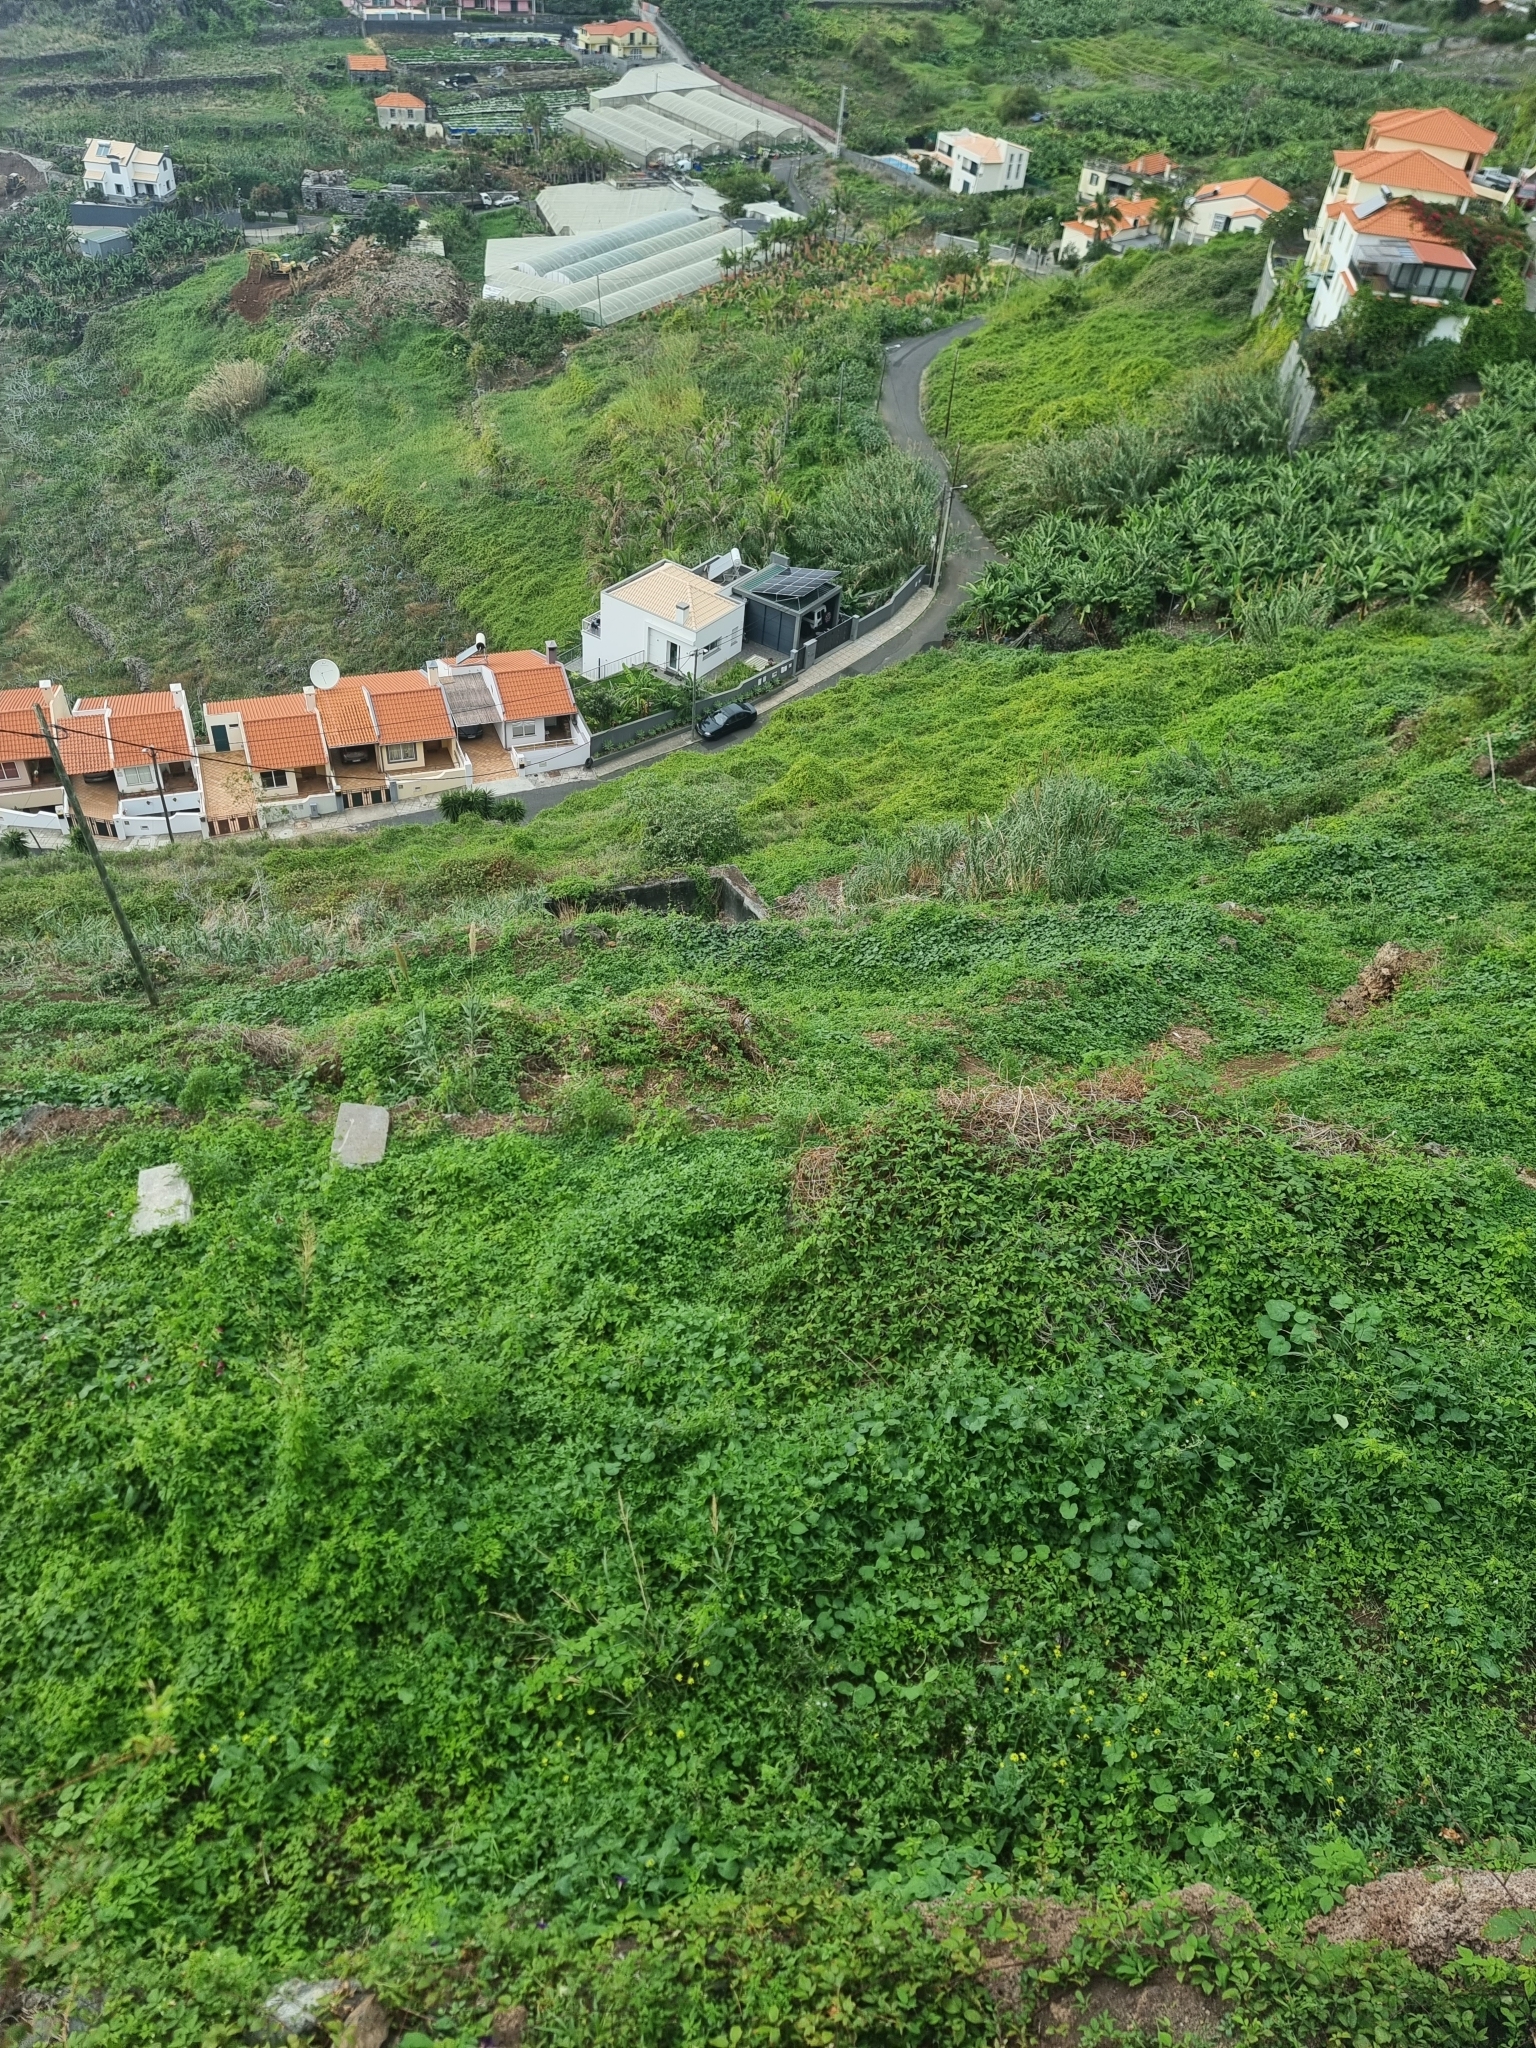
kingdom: Plantae
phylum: Tracheophyta
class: Magnoliopsida
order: Sapindales
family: Sapindaceae
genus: Cardiospermum
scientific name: Cardiospermum grandiflorum
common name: Balloon vine
